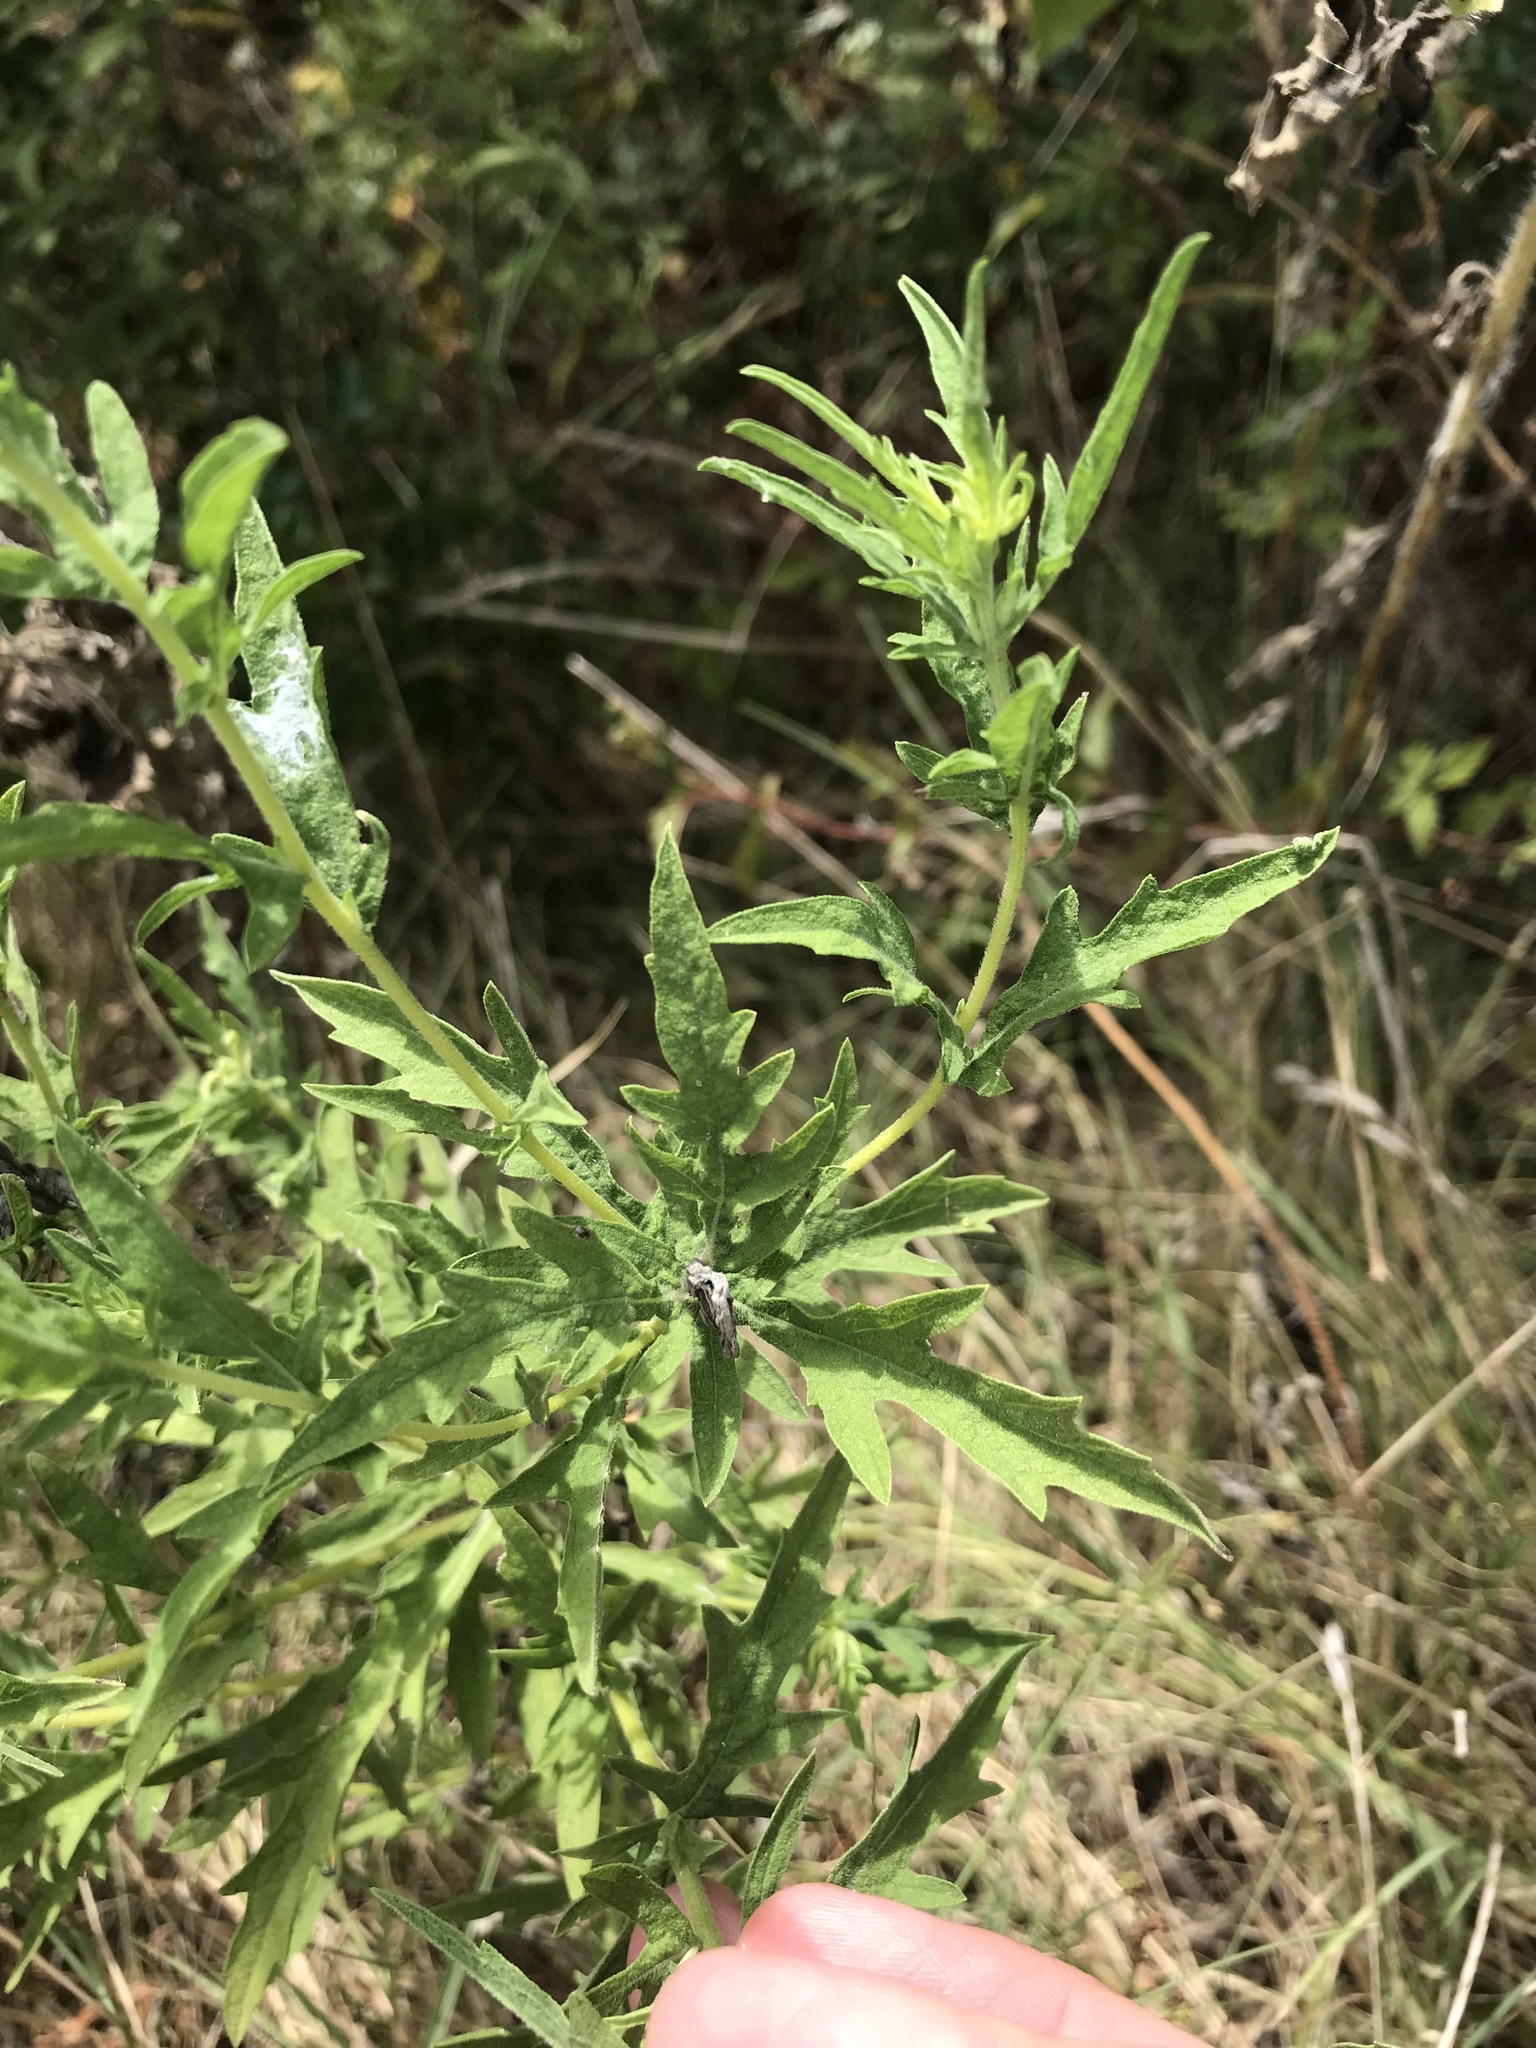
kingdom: Plantae
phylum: Tracheophyta
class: Magnoliopsida
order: Asterales
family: Asteraceae
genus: Ambrosia
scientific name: Ambrosia psilostachya
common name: Perennial ragweed
